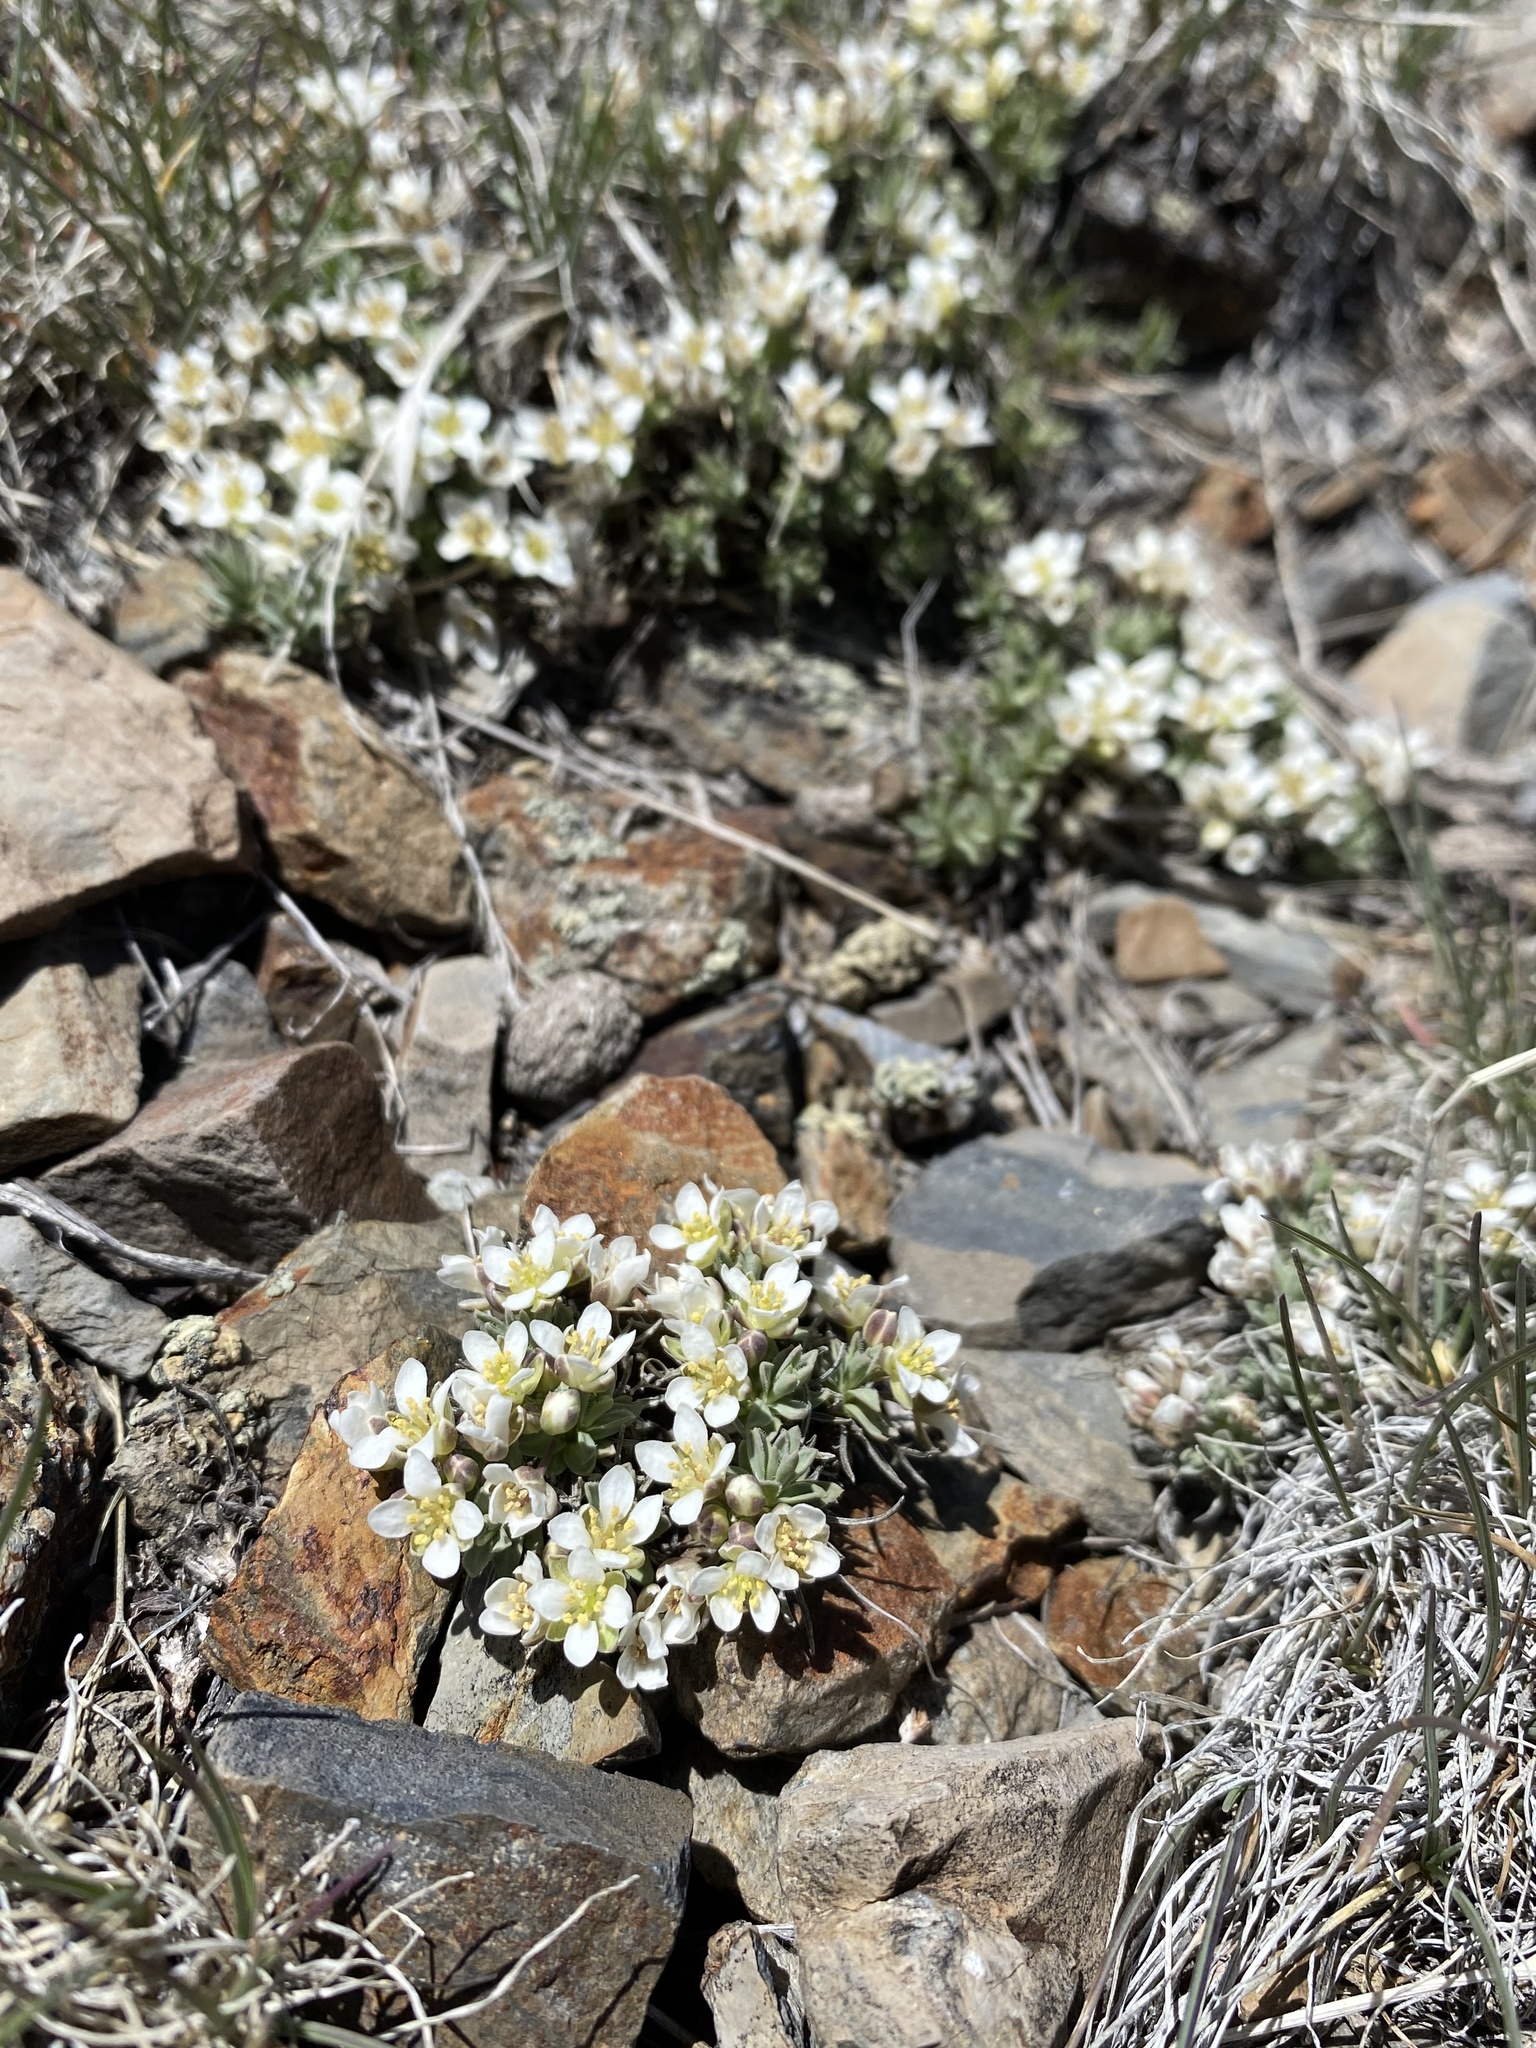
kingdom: Plantae
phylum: Tracheophyta
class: Magnoliopsida
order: Brassicales
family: Brassicaceae
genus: Cusickiella
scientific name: Cusickiella douglasii
